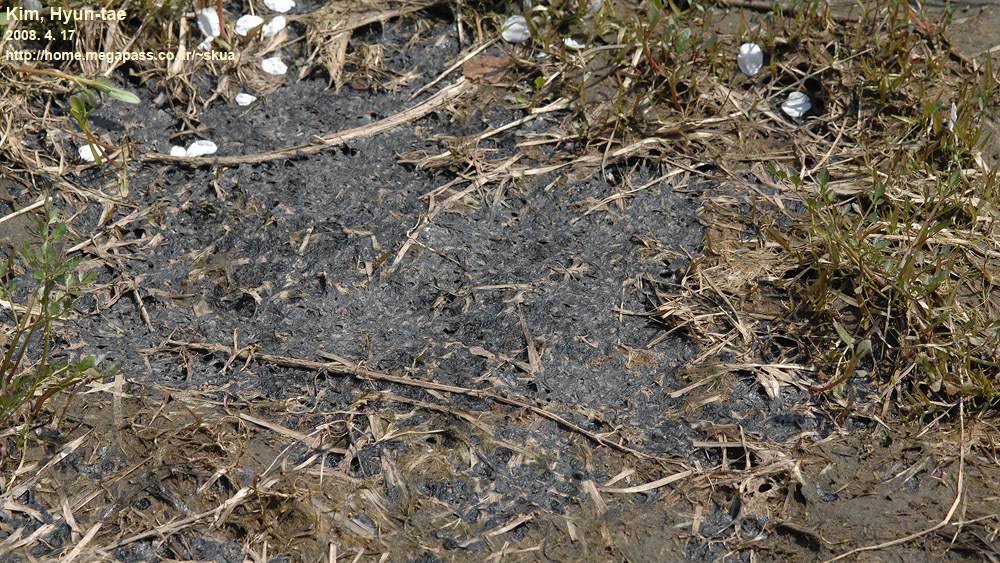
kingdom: Animalia
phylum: Chordata
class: Amphibia
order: Anura
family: Ranidae
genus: Rana
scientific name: Rana uenoi
